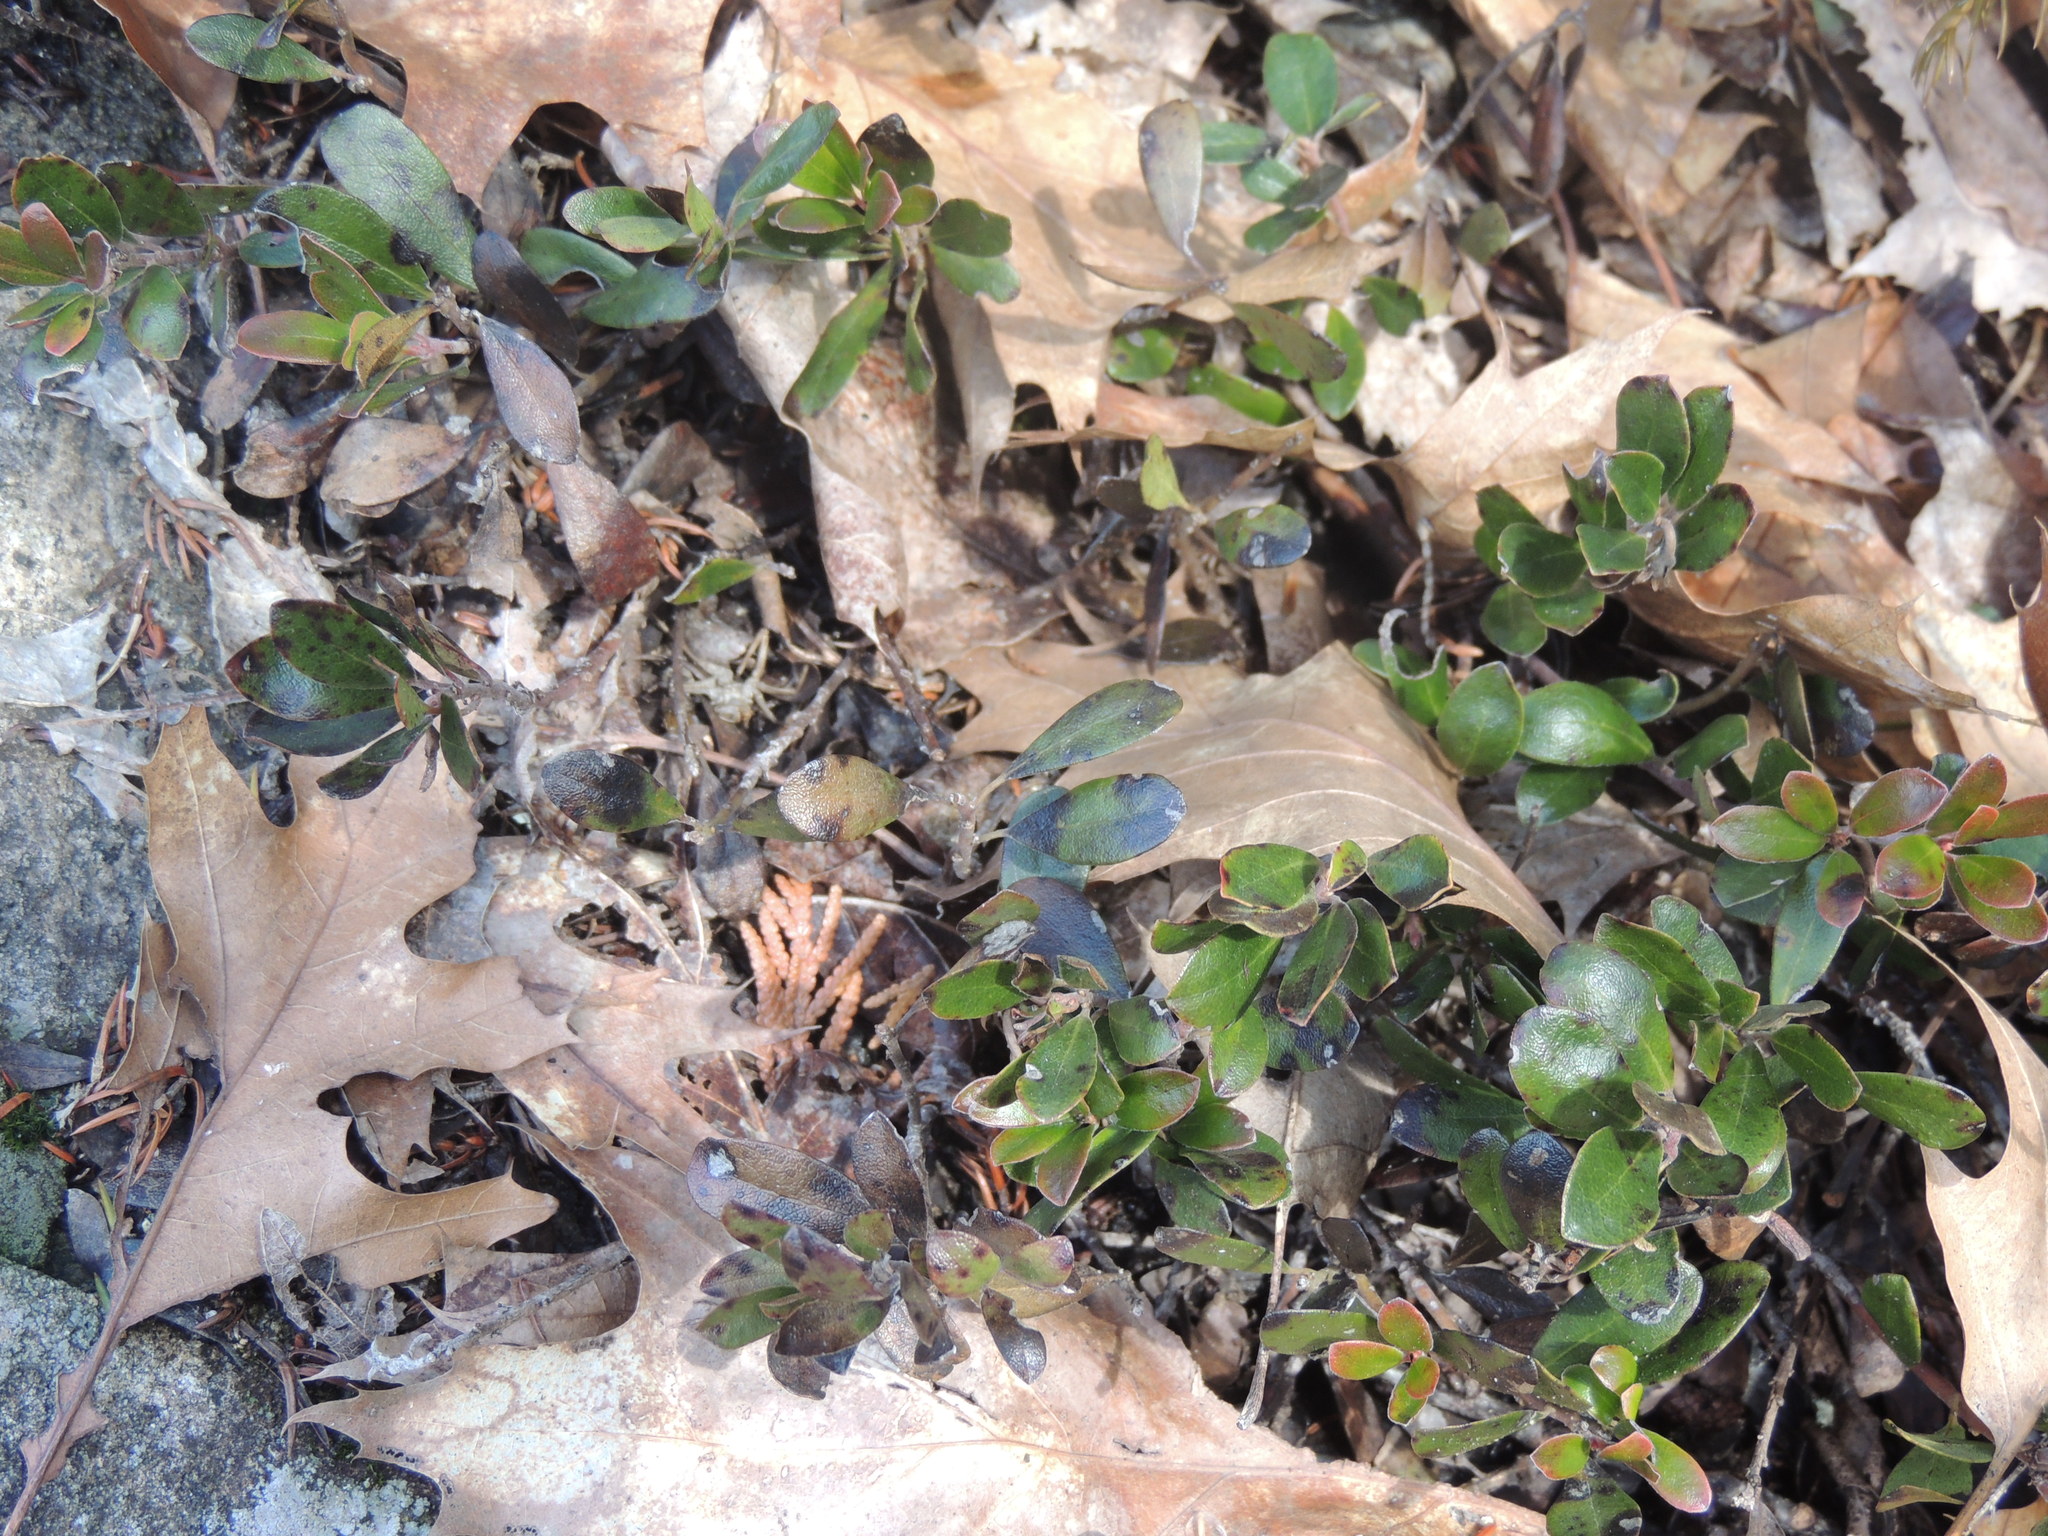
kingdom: Plantae
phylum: Tracheophyta
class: Magnoliopsida
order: Ericales
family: Ericaceae
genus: Arctostaphylos
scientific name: Arctostaphylos uva-ursi
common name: Bearberry
